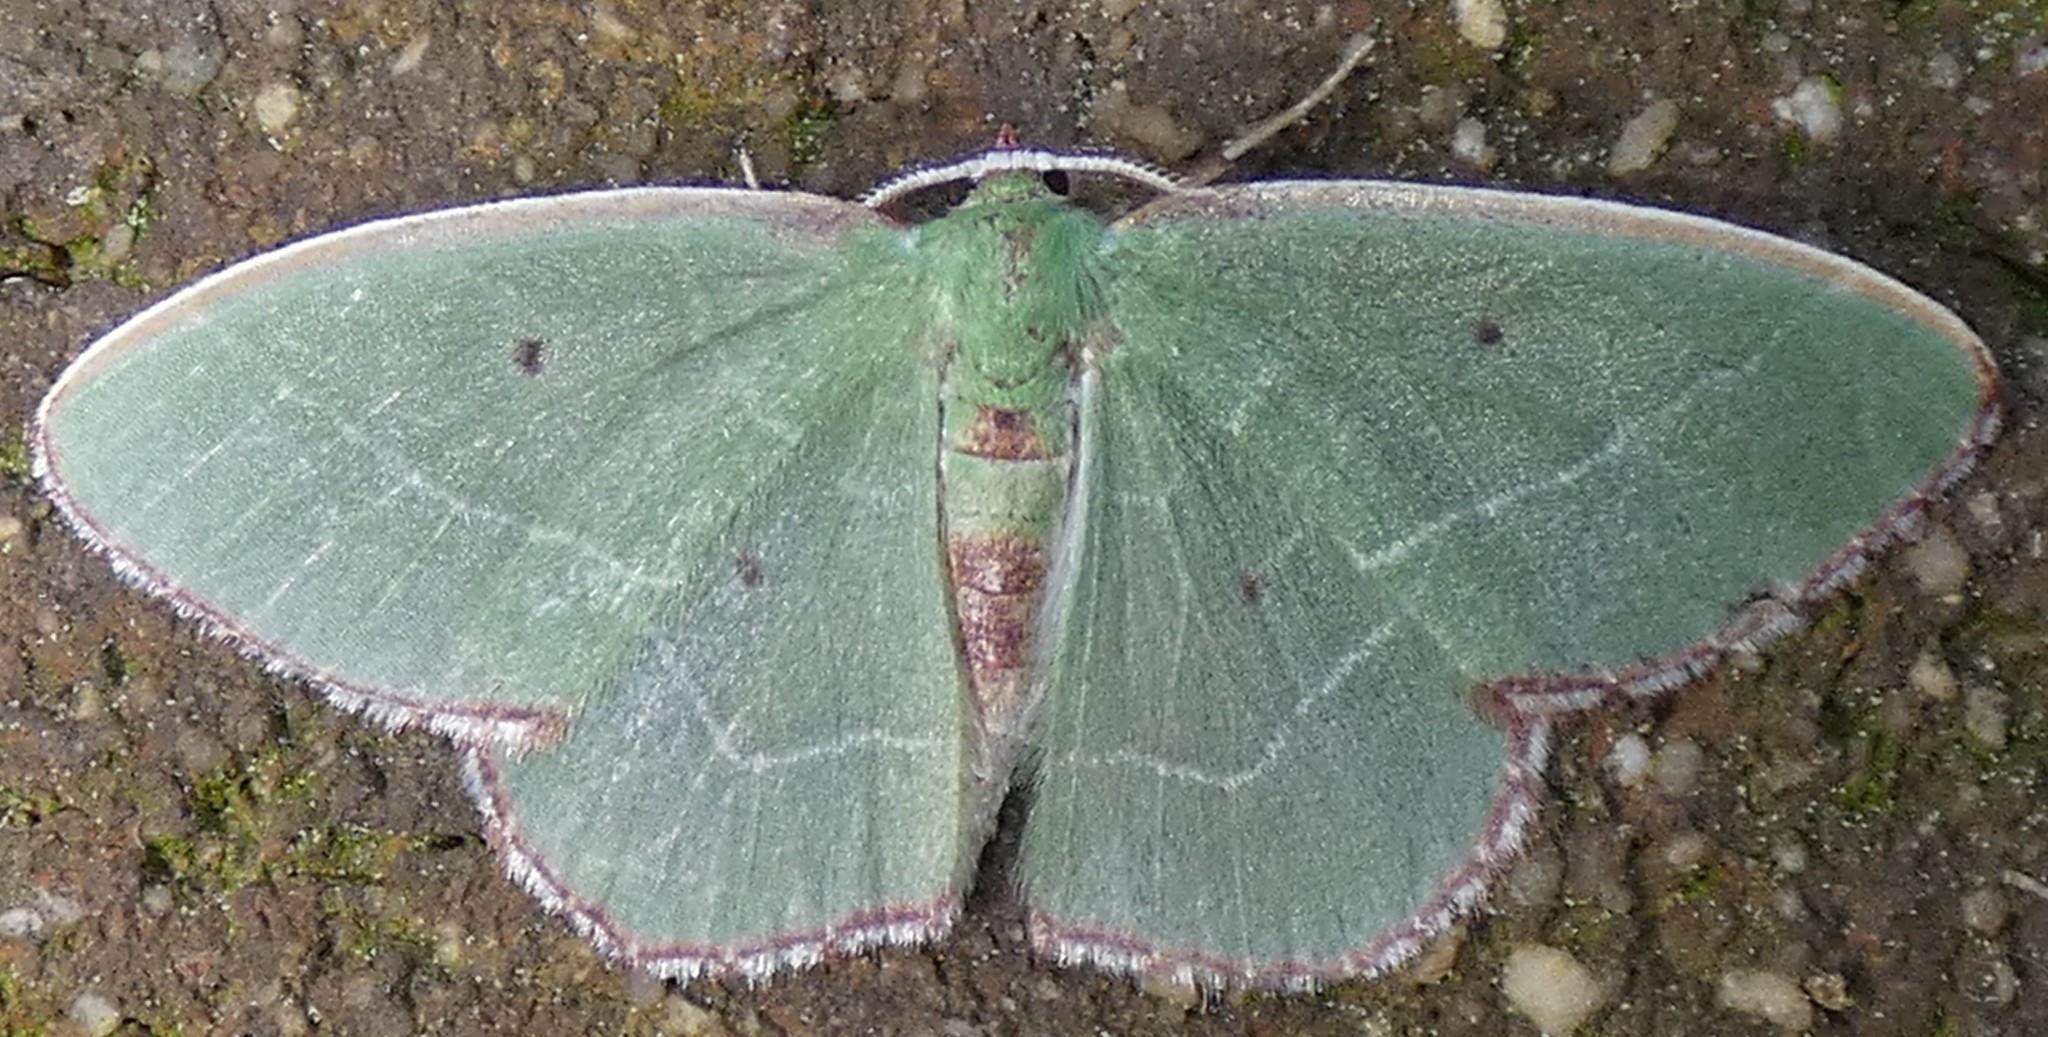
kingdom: Animalia
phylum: Arthropoda
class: Insecta
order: Lepidoptera
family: Geometridae
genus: Nemoria
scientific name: Nemoria saturiba
